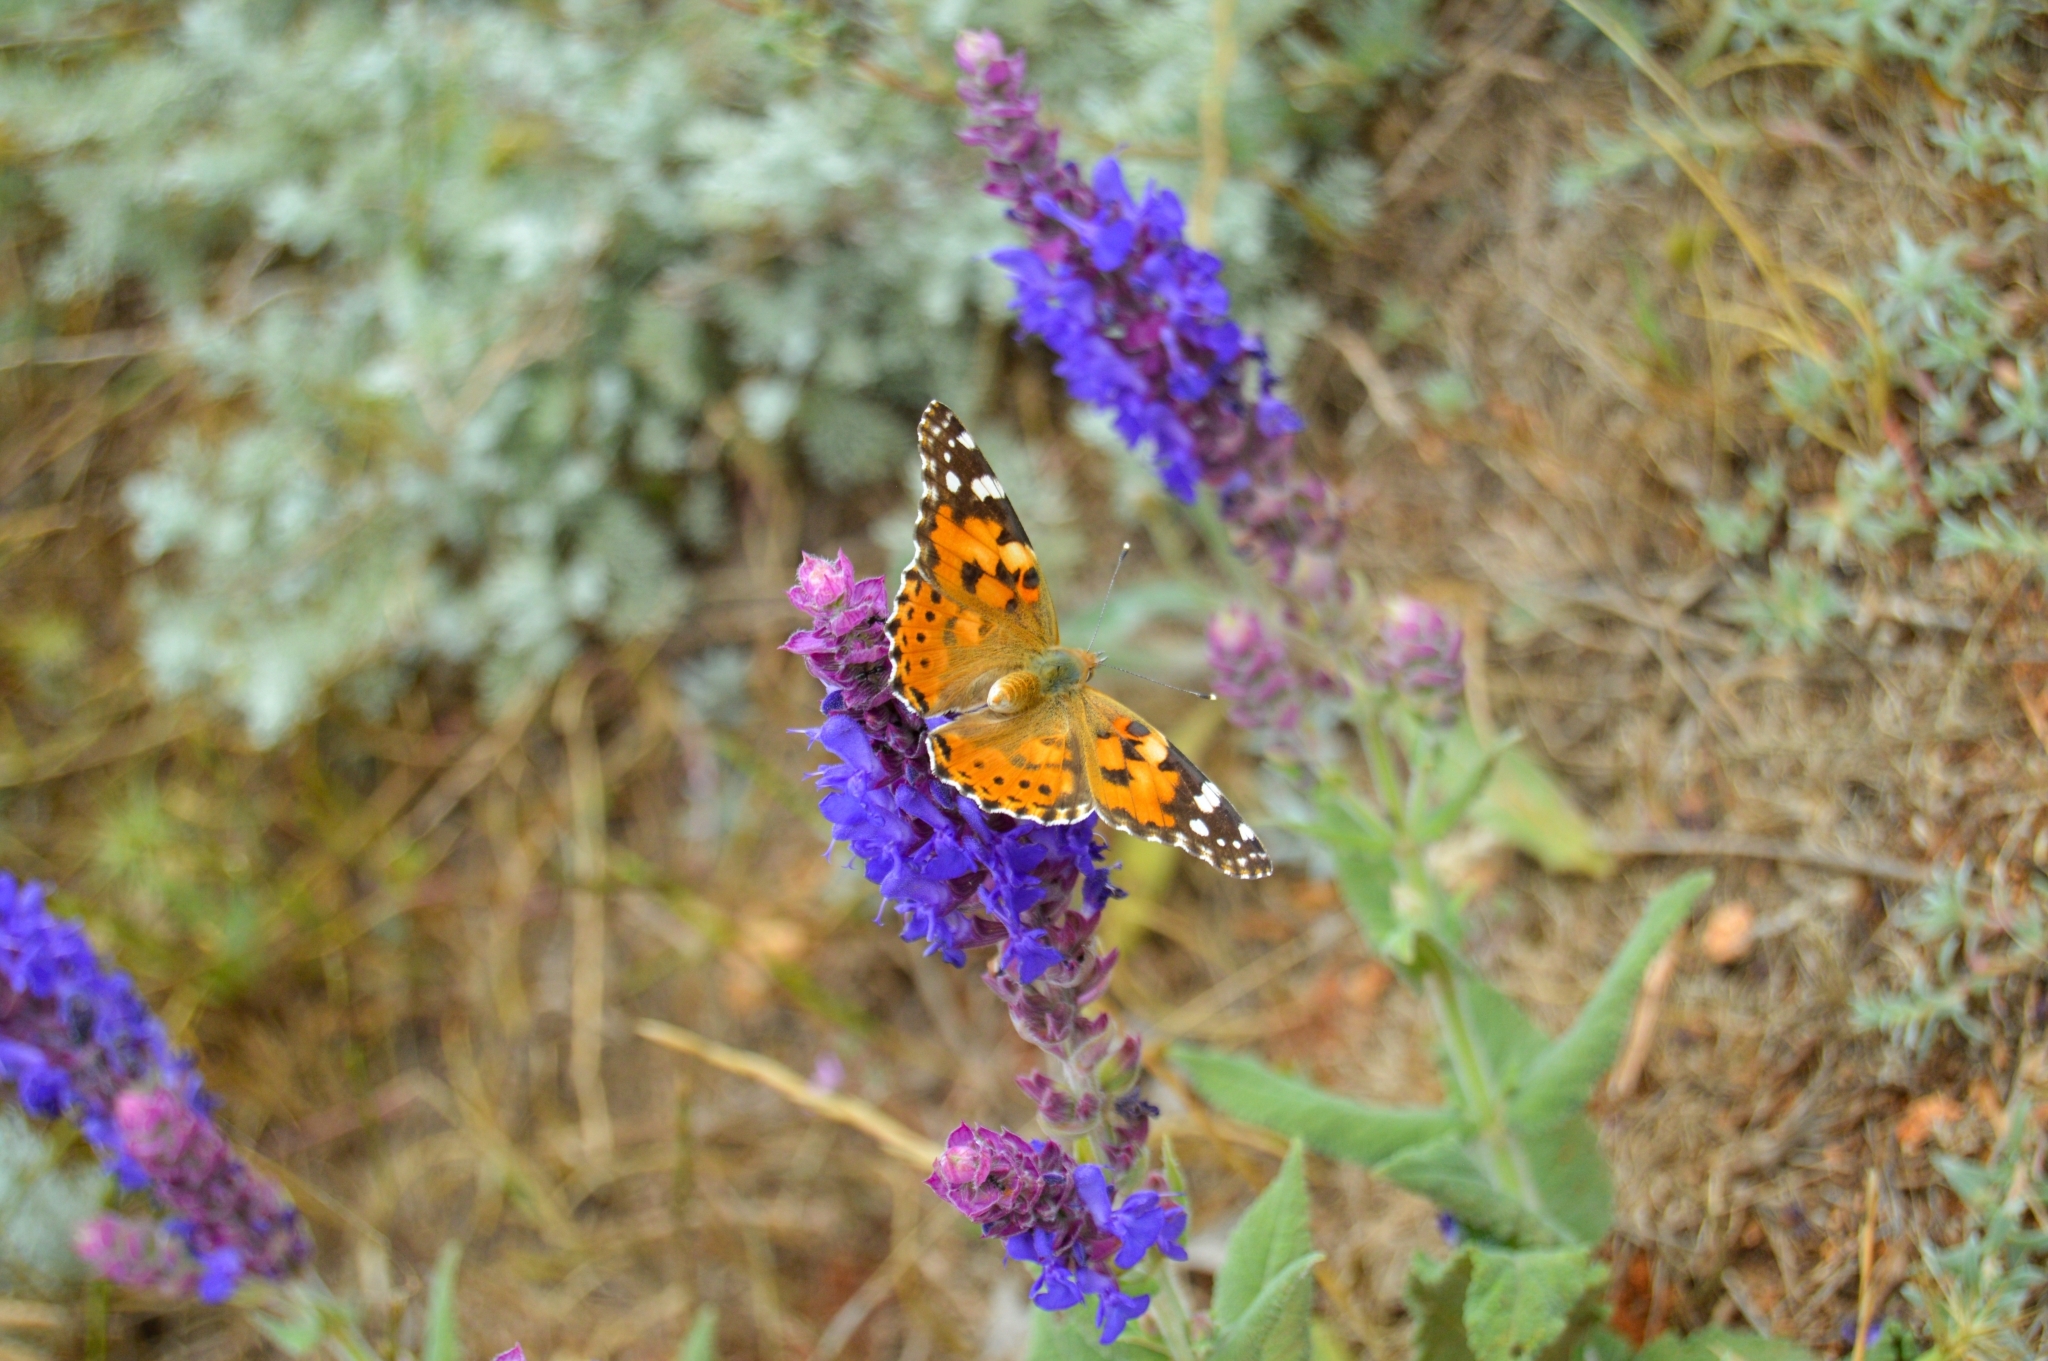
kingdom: Animalia
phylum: Arthropoda
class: Insecta
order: Lepidoptera
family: Nymphalidae
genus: Vanessa
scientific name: Vanessa cardui
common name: Painted lady
